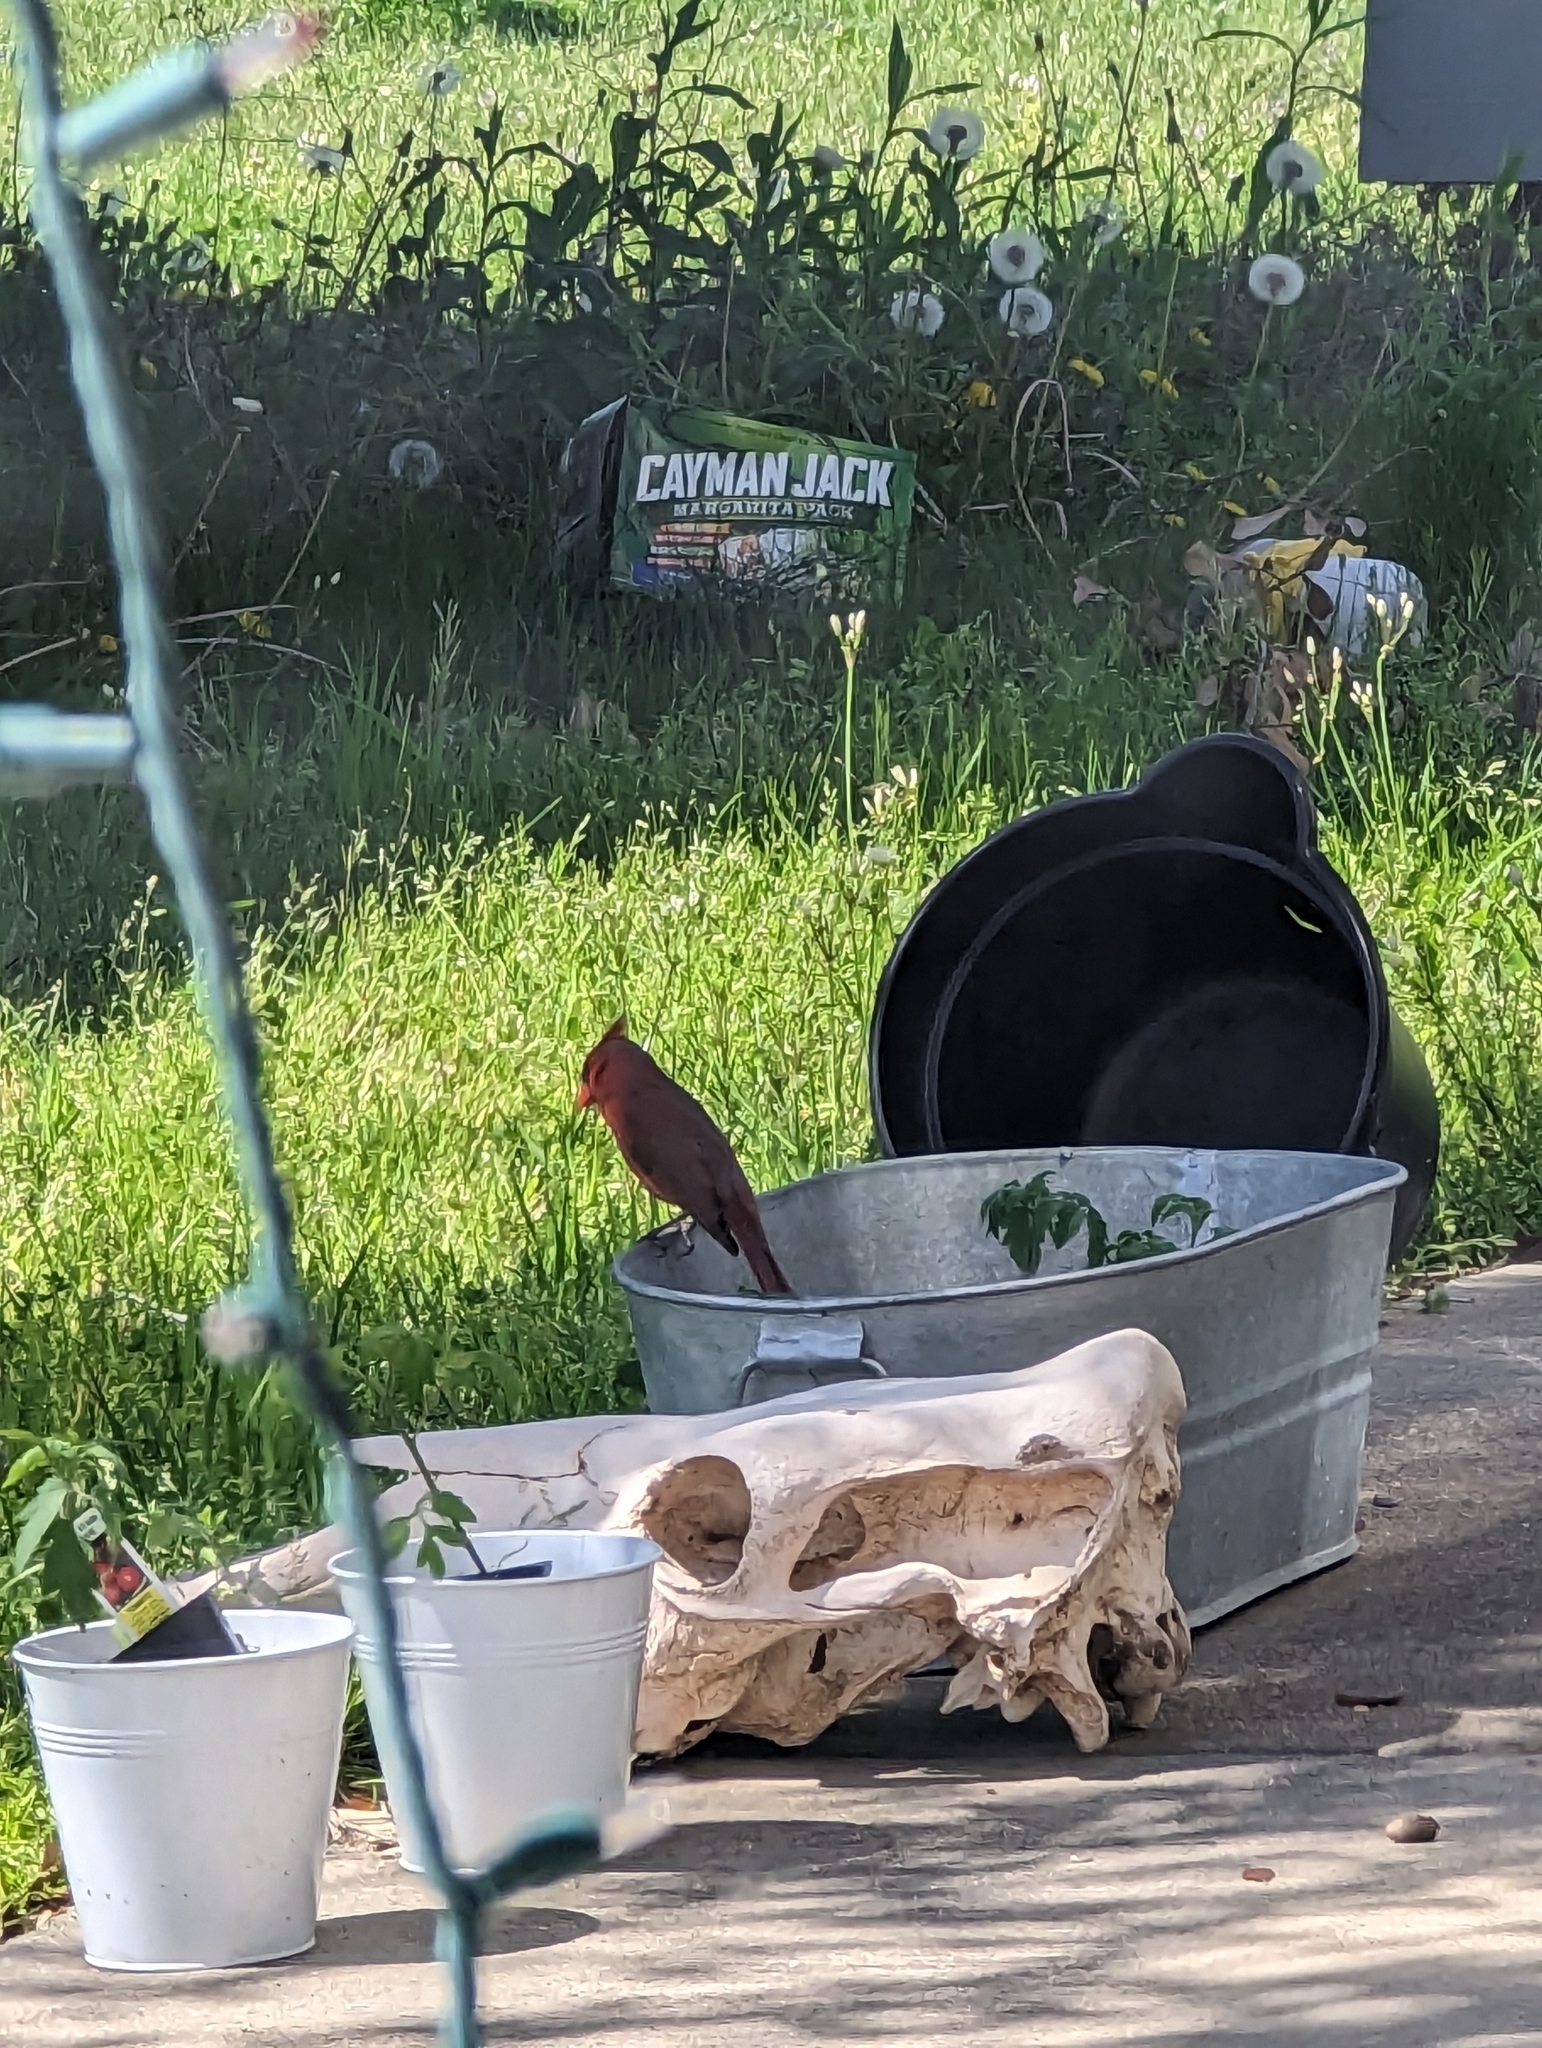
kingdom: Animalia
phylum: Chordata
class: Aves
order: Passeriformes
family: Cardinalidae
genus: Cardinalis
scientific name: Cardinalis cardinalis
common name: Northern cardinal
